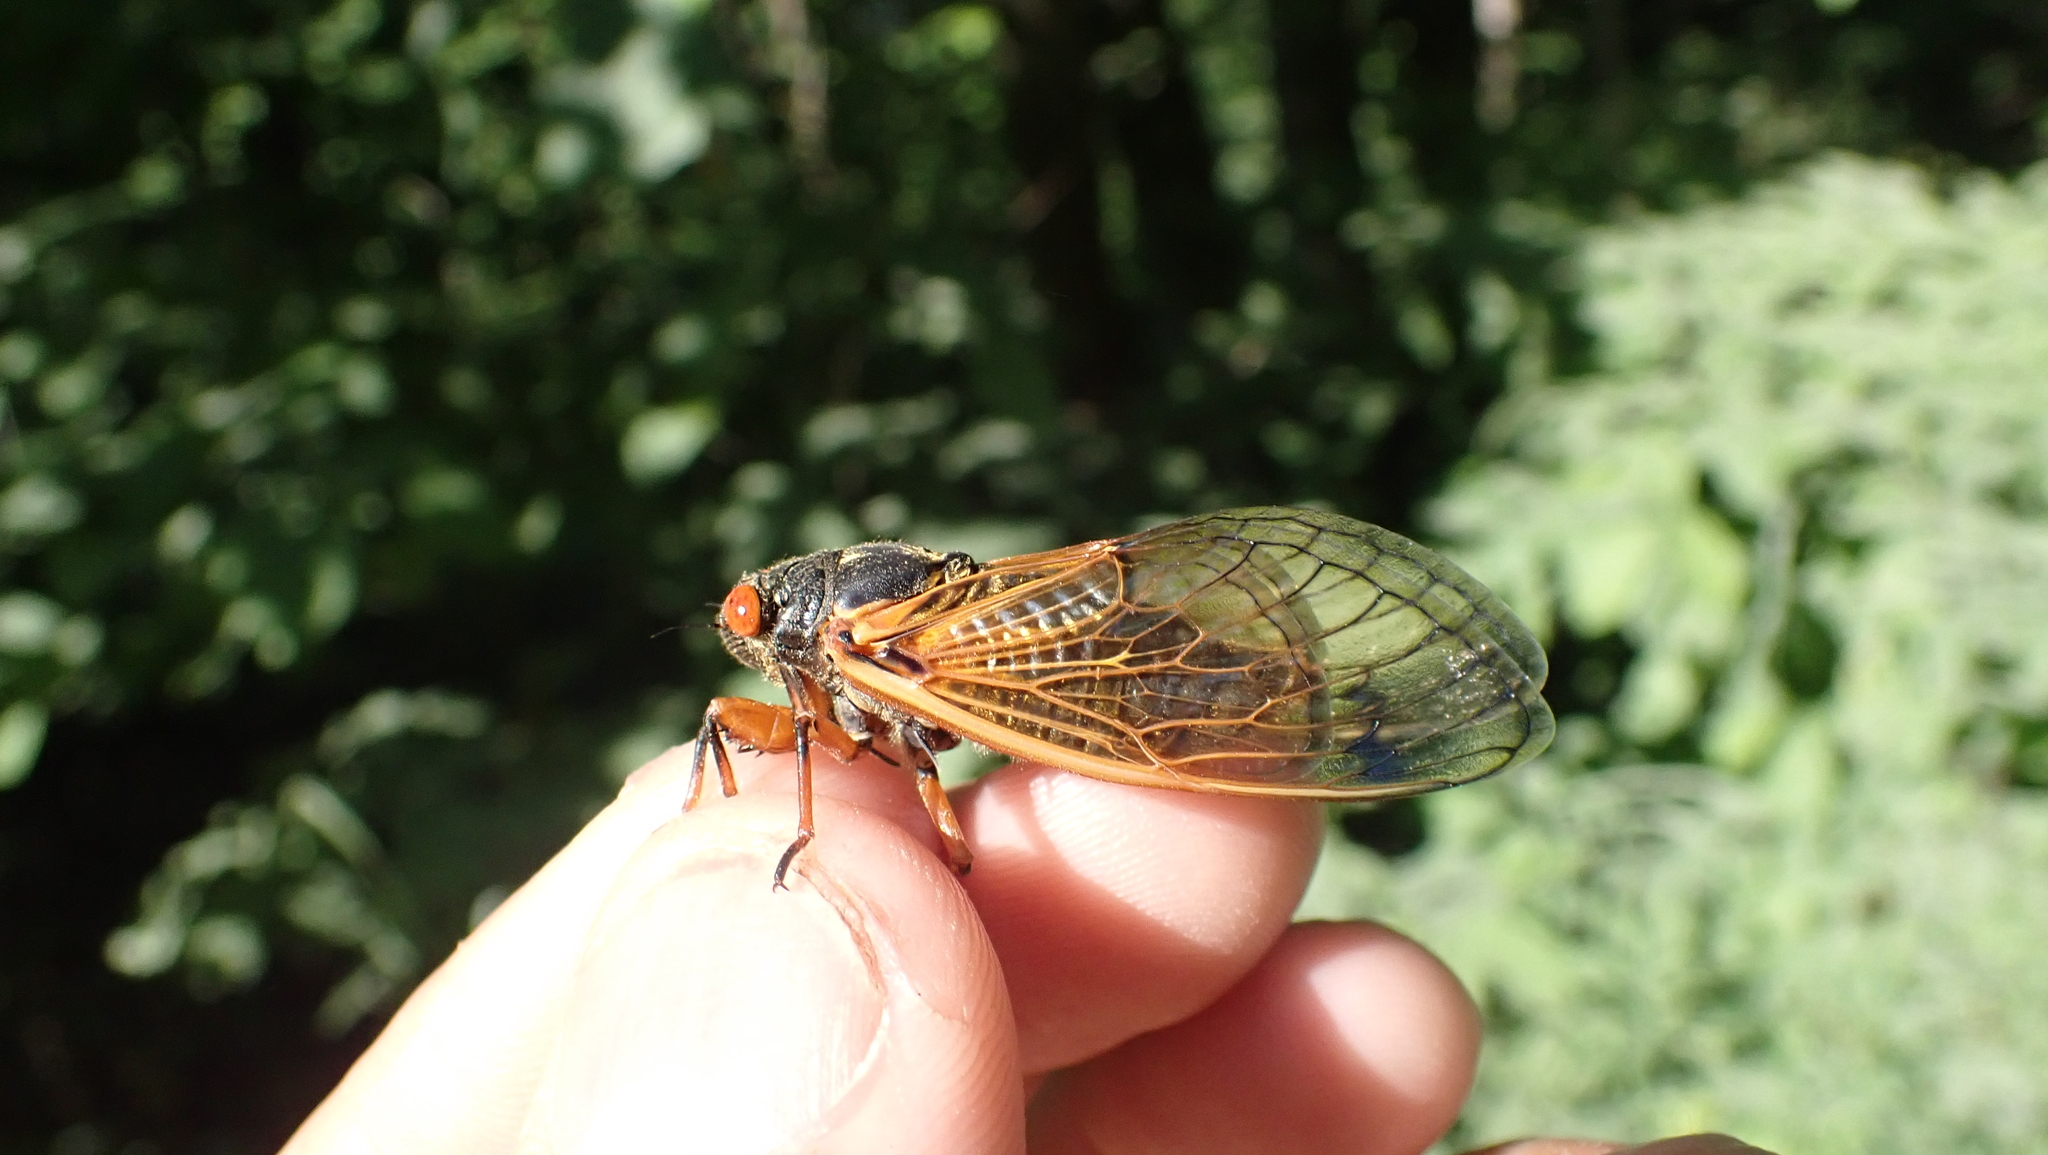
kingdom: Animalia
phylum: Arthropoda
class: Insecta
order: Hemiptera
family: Cicadidae
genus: Magicicada
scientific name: Magicicada cassini
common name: Cassin's 17-year cicada
